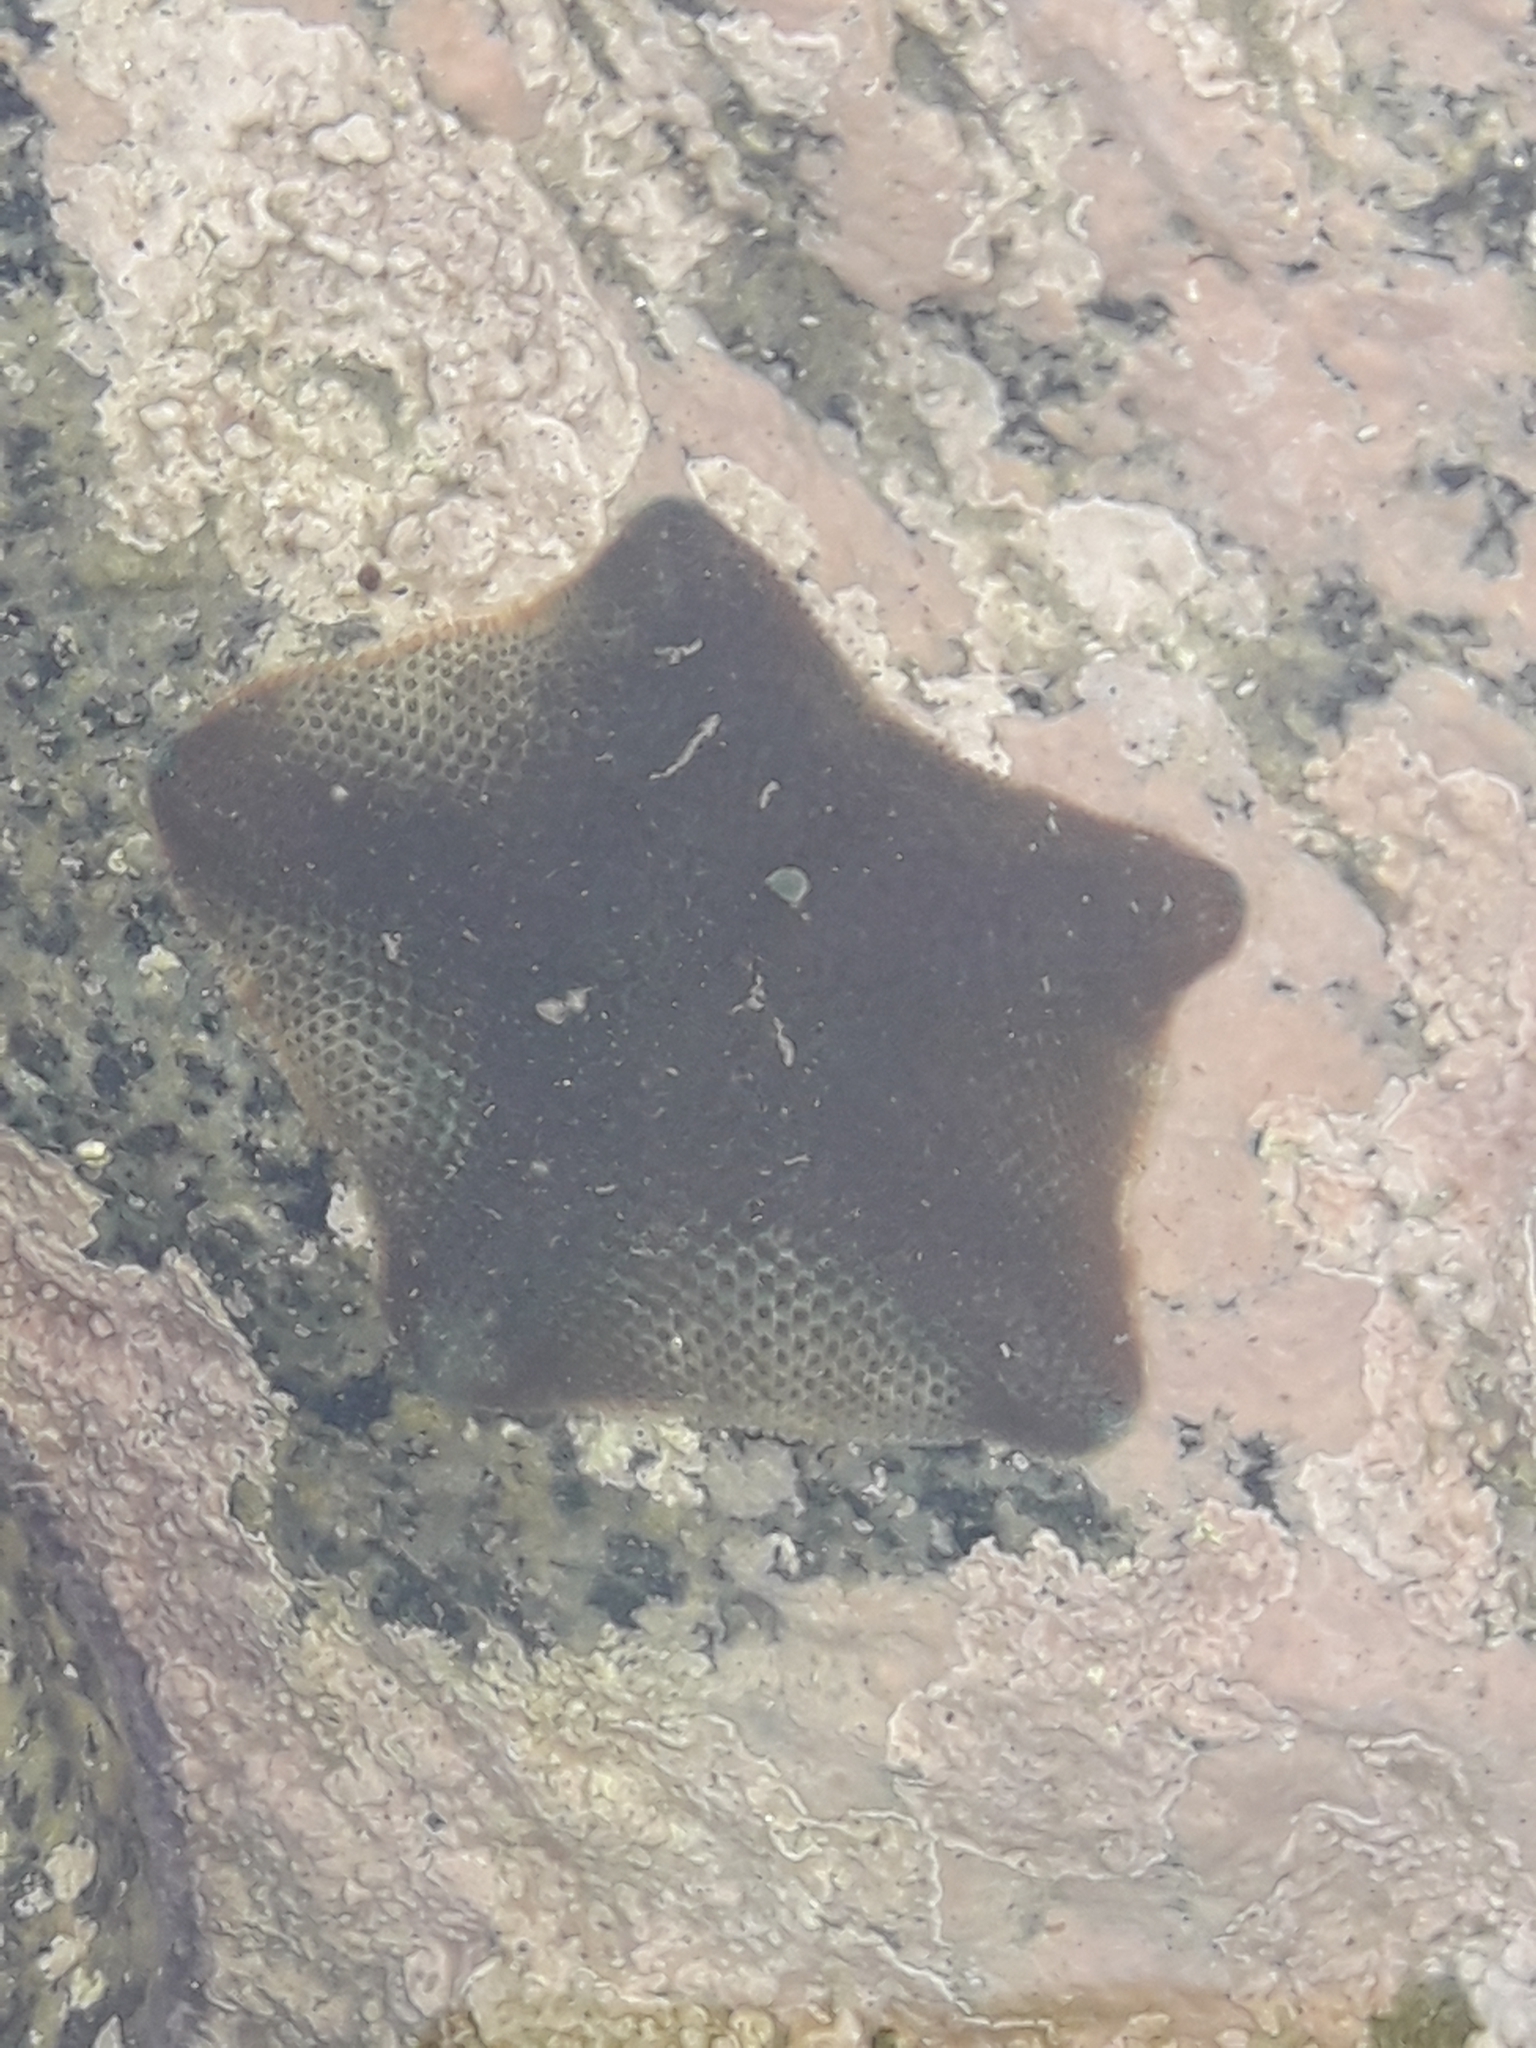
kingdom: Animalia
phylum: Echinodermata
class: Asteroidea
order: Valvatida
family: Asterinidae
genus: Patiriella
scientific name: Patiriella regularis
